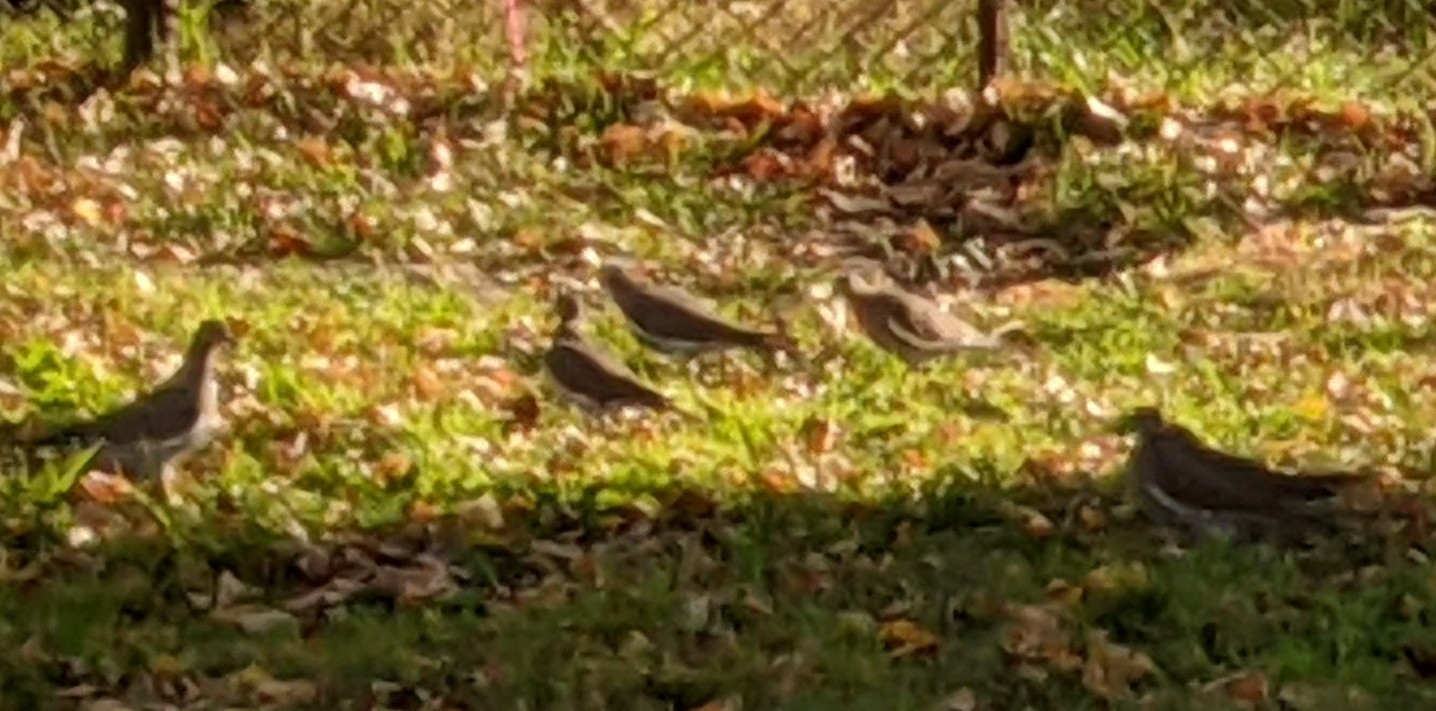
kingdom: Animalia
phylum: Chordata
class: Aves
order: Columbiformes
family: Columbidae
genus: Zenaida
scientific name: Zenaida asiatica
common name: White-winged dove
